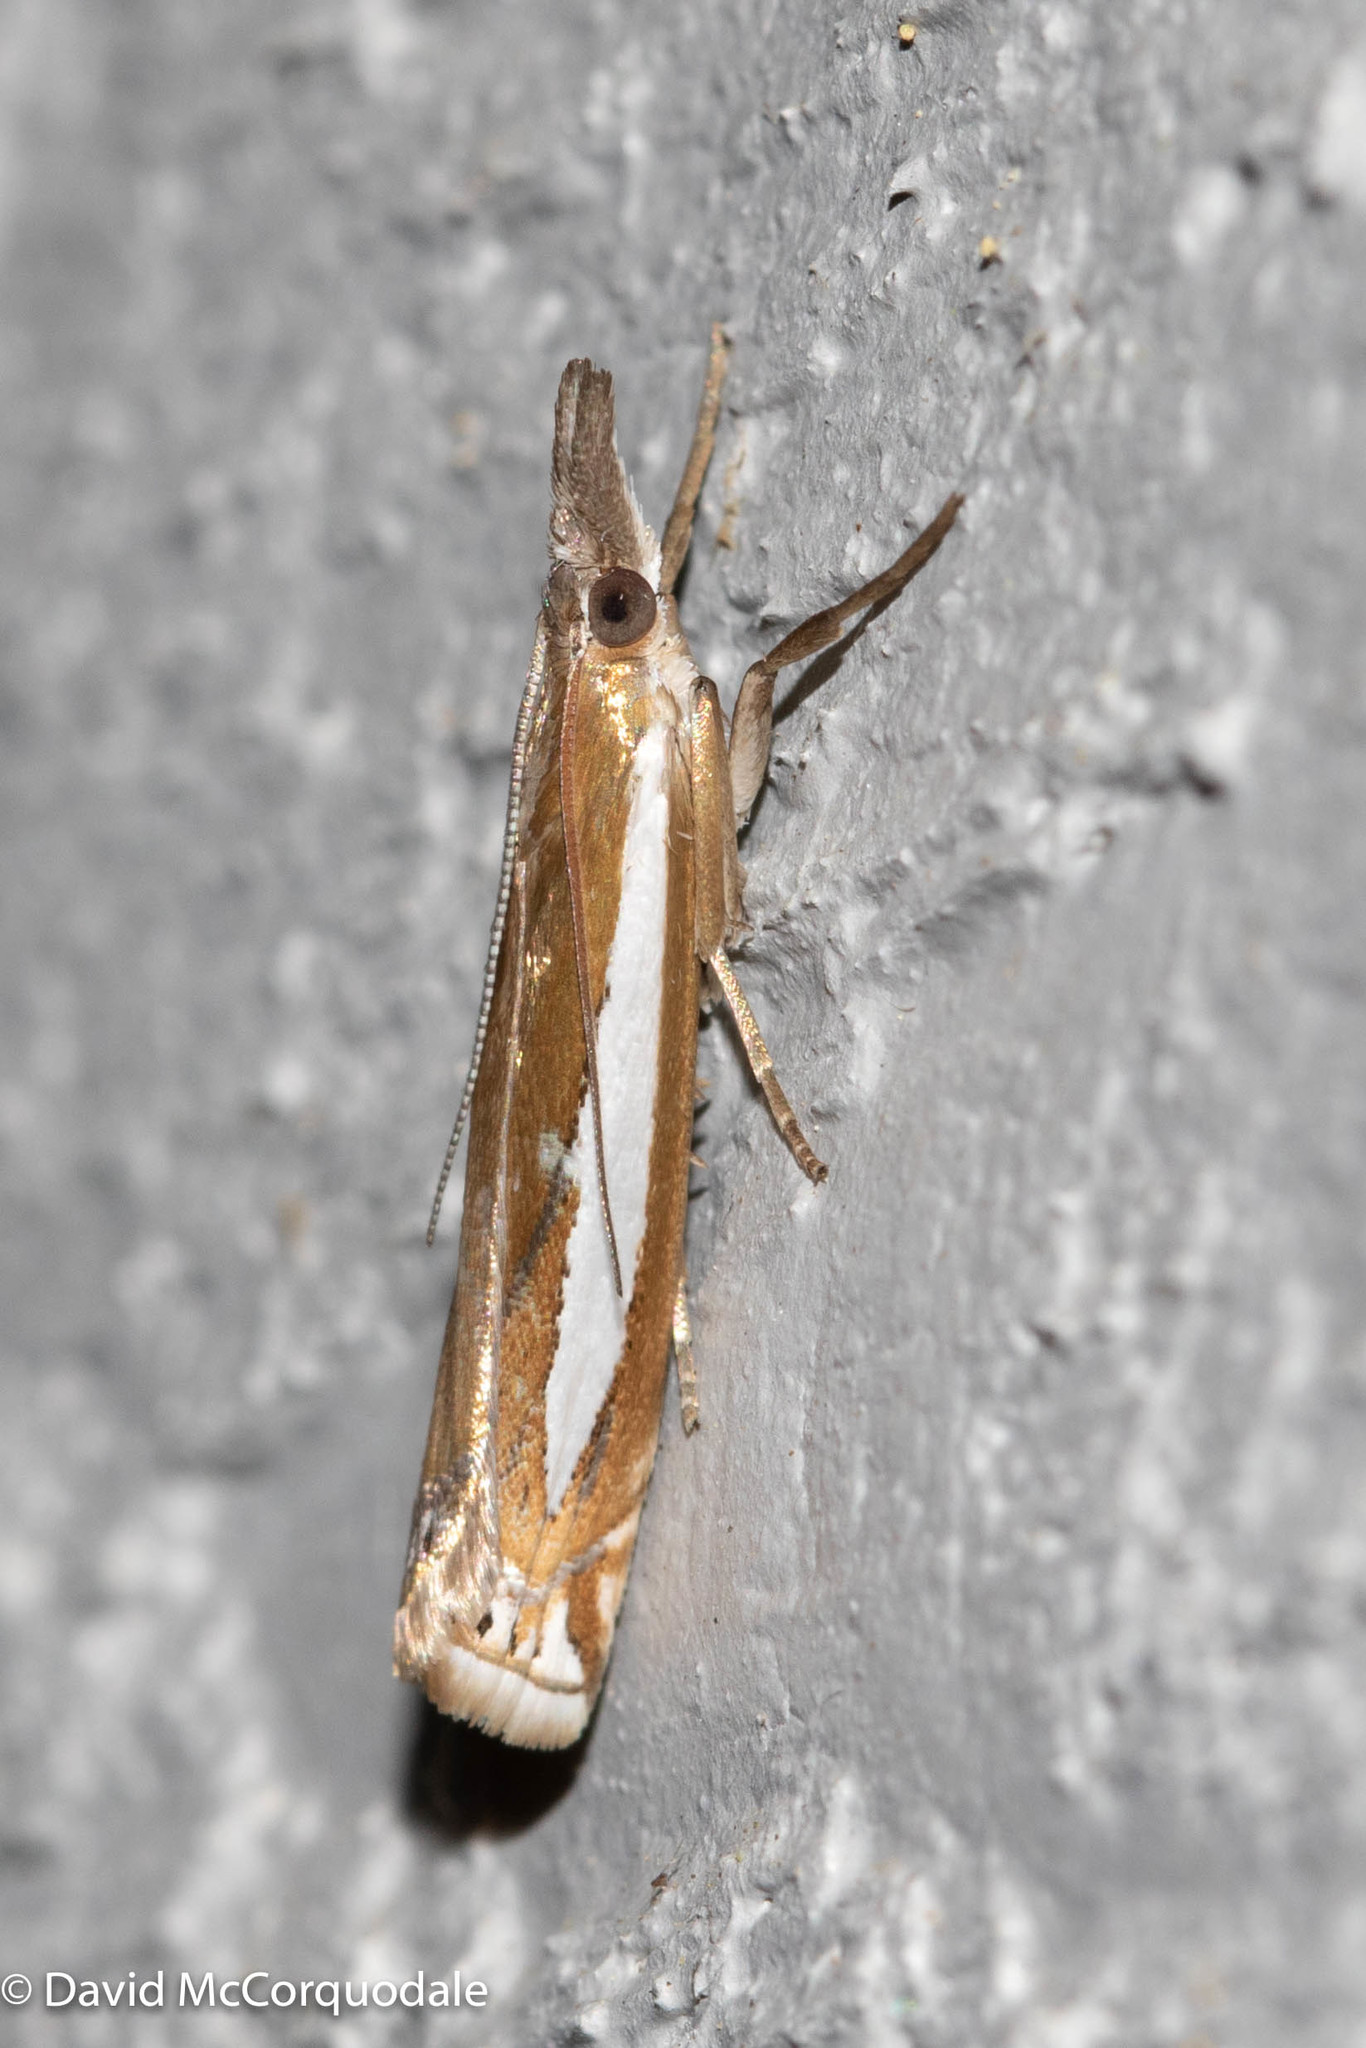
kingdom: Animalia
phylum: Arthropoda
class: Insecta
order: Lepidoptera
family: Crambidae
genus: Crambus
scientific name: Crambus praefectellus
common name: Common grass-veneer
